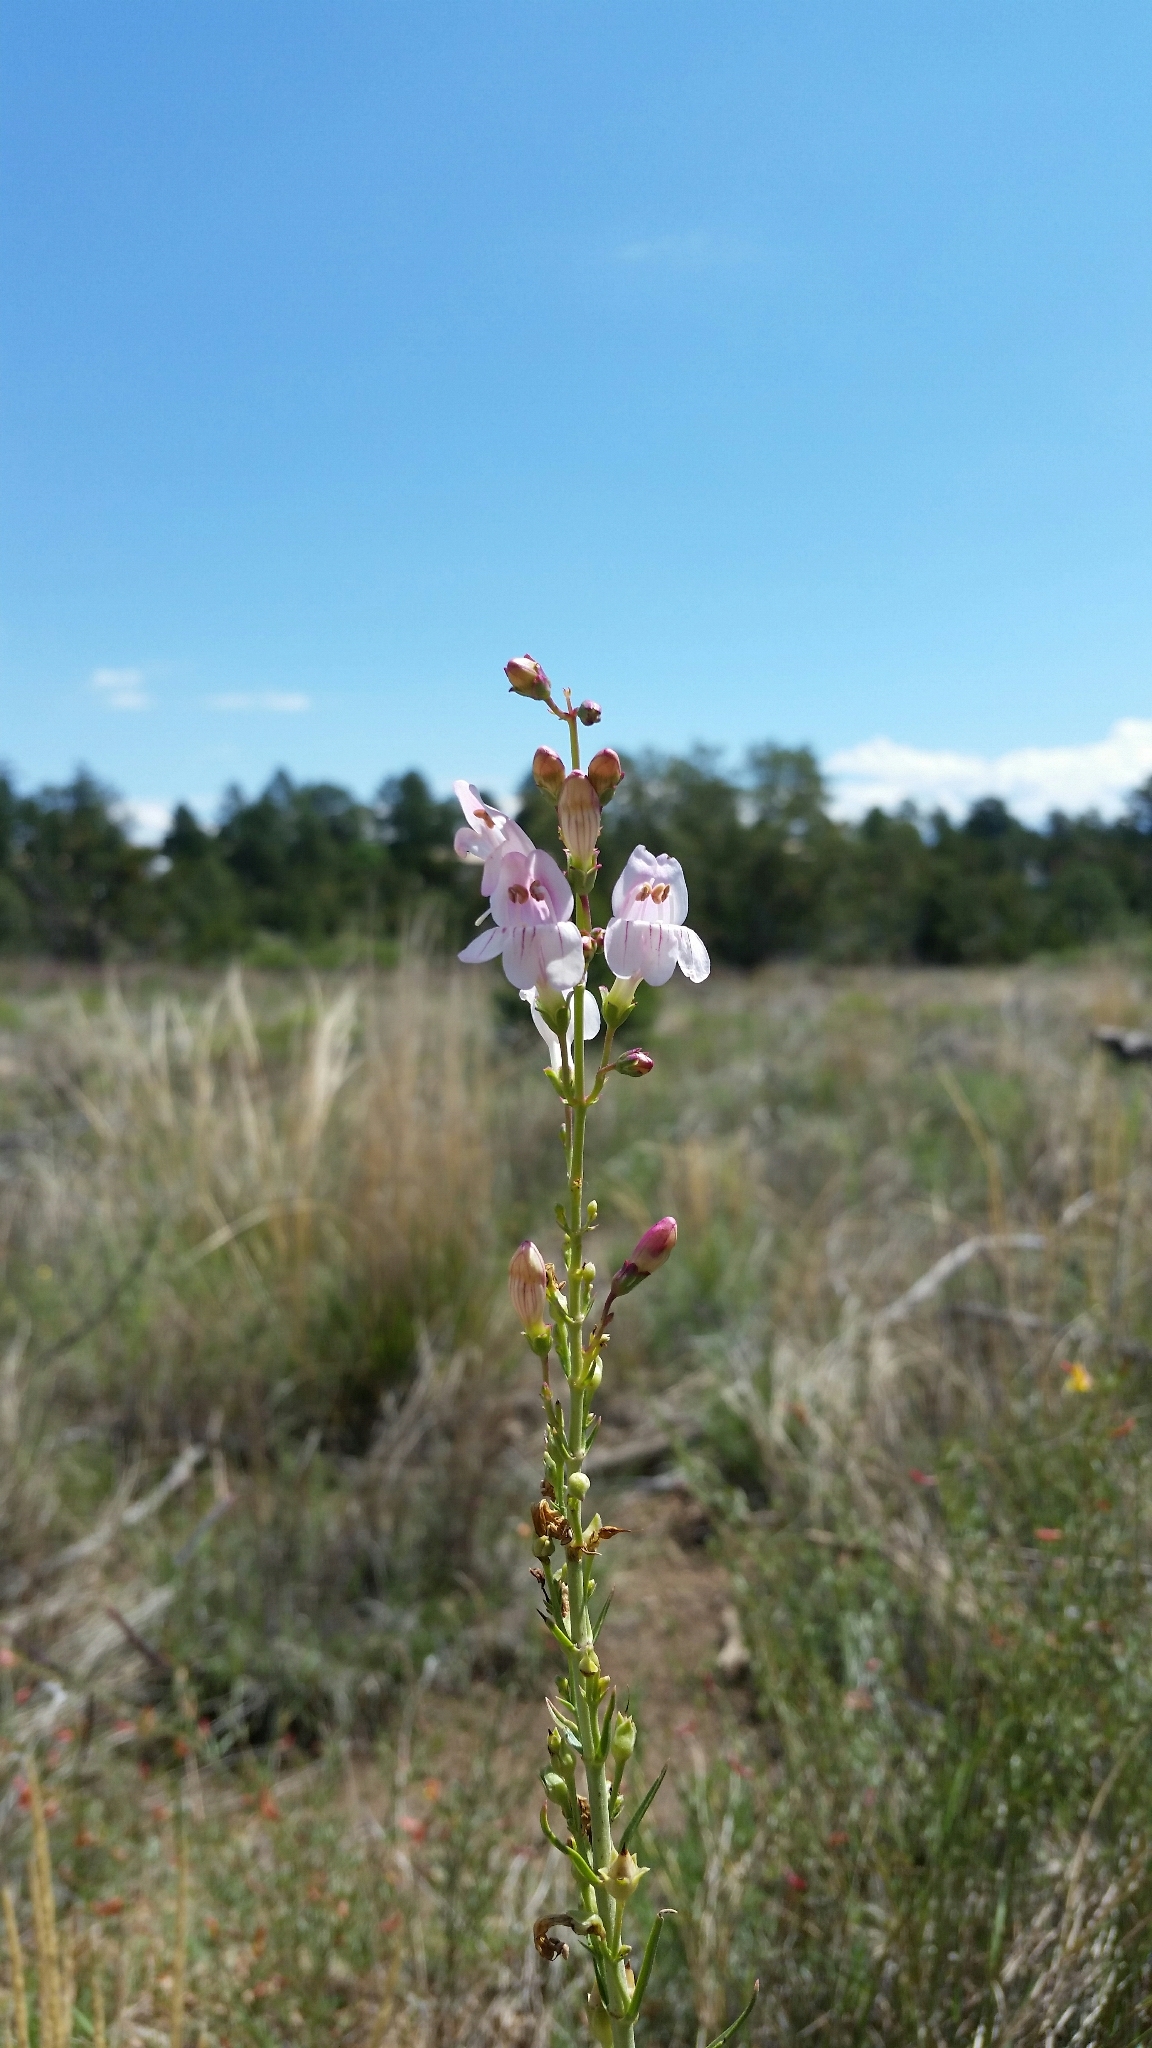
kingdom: Plantae
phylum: Tracheophyta
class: Magnoliopsida
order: Lamiales
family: Plantaginaceae
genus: Penstemon
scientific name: Penstemon virgatus
